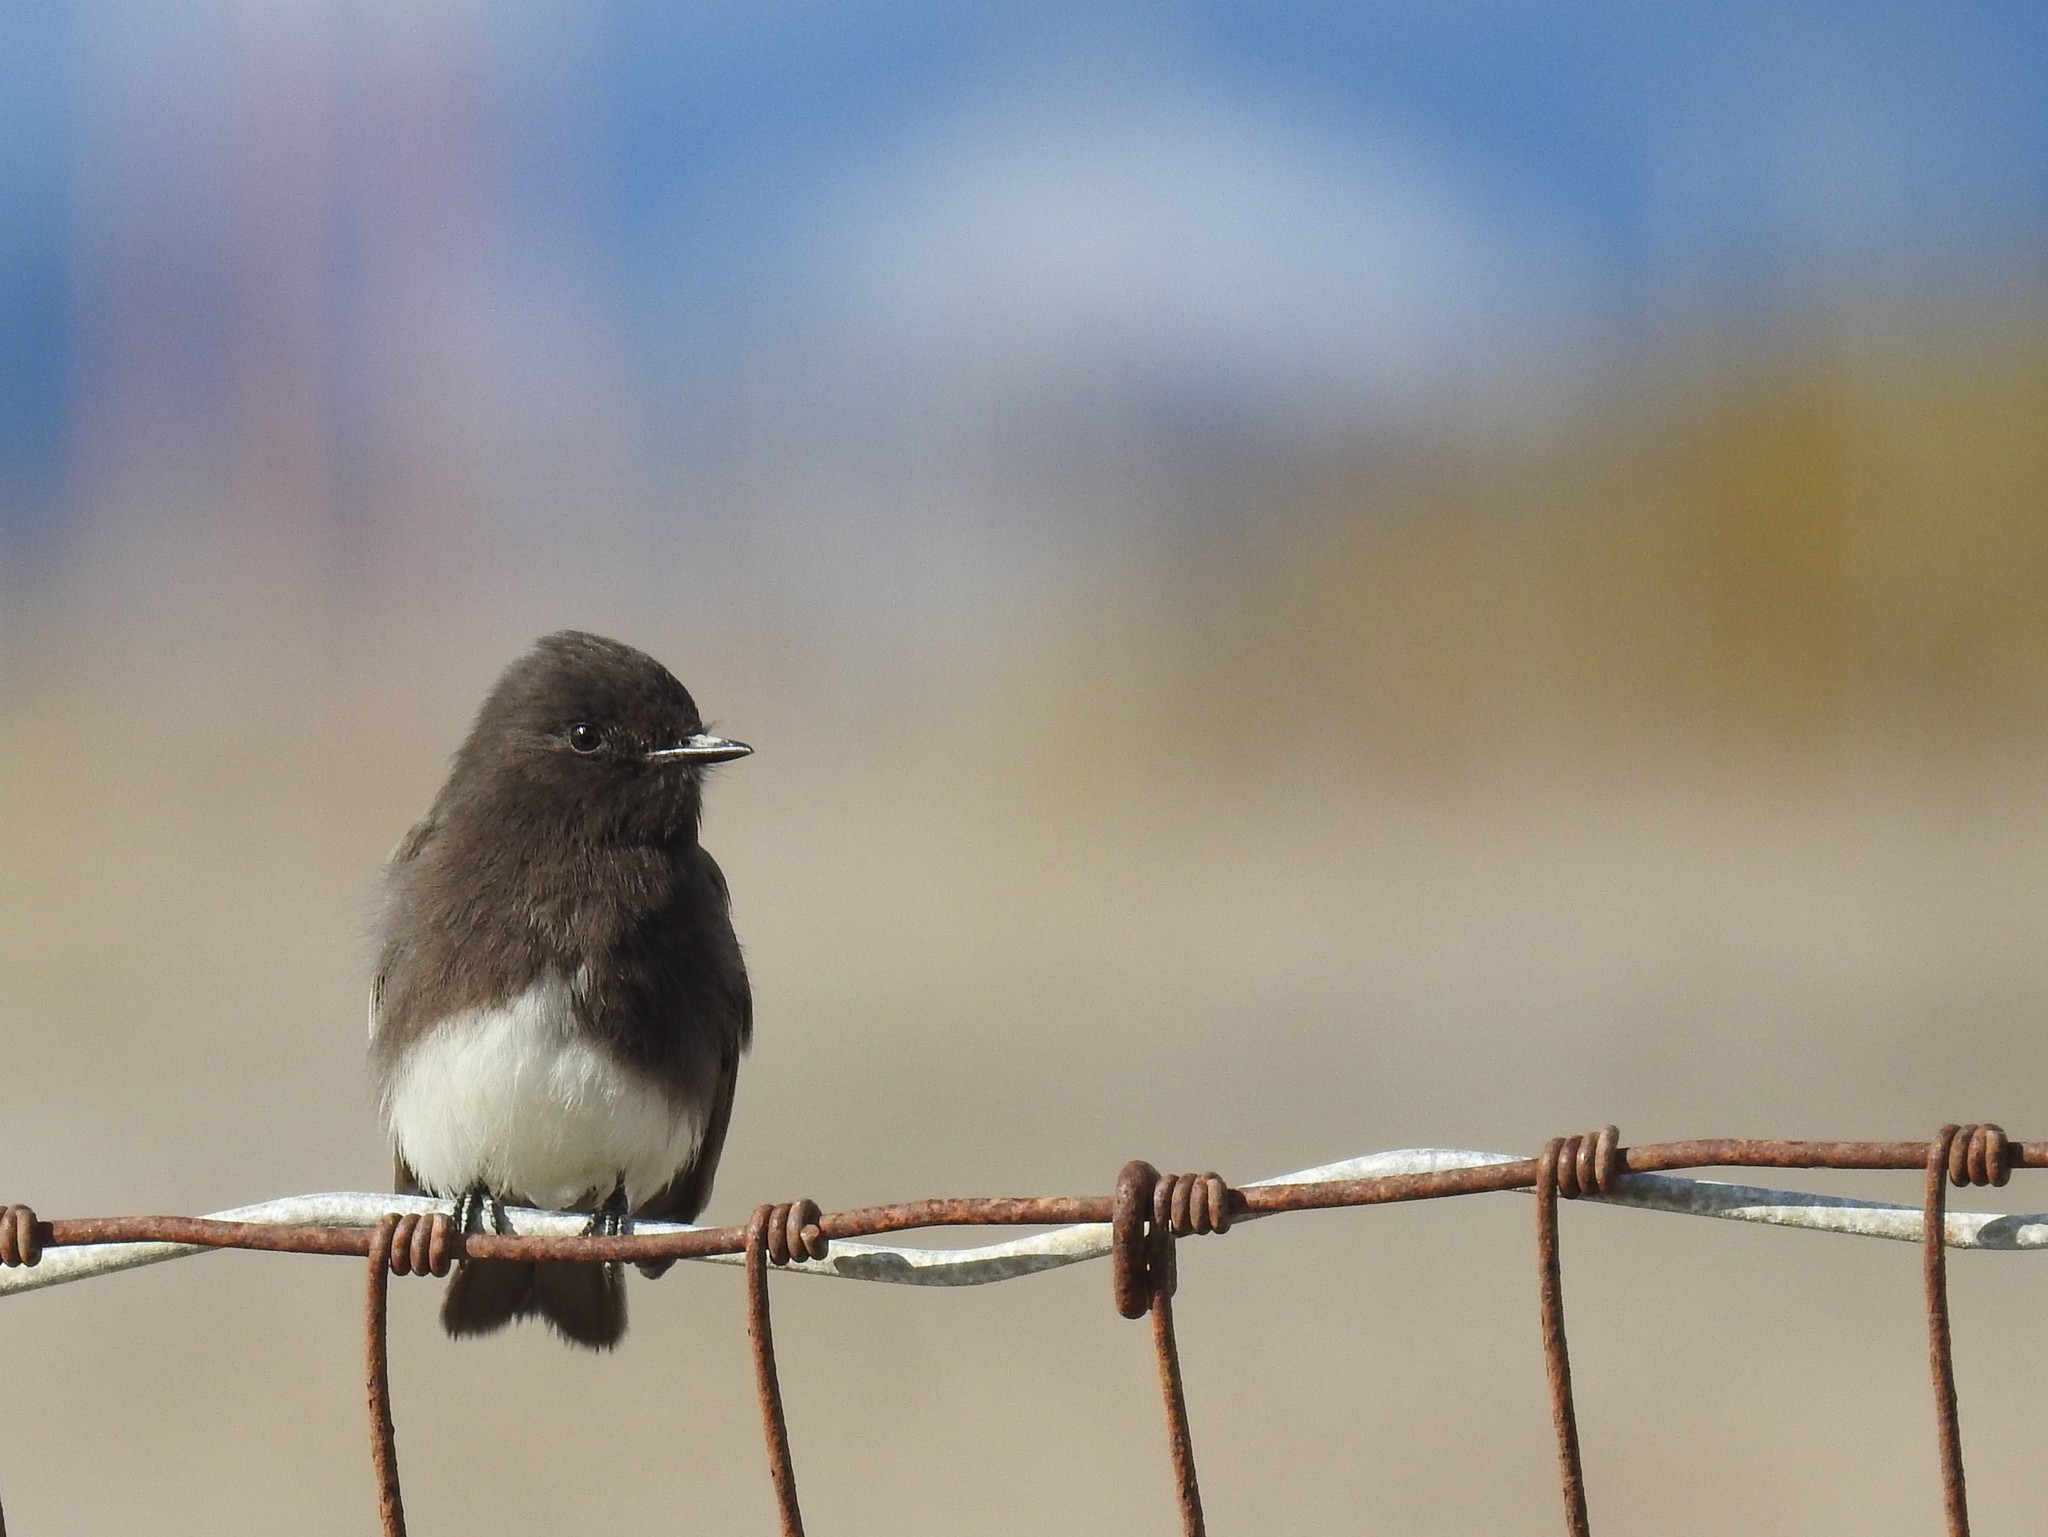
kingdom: Animalia
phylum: Chordata
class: Aves
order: Passeriformes
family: Tyrannidae
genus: Sayornis
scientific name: Sayornis nigricans
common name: Black phoebe
